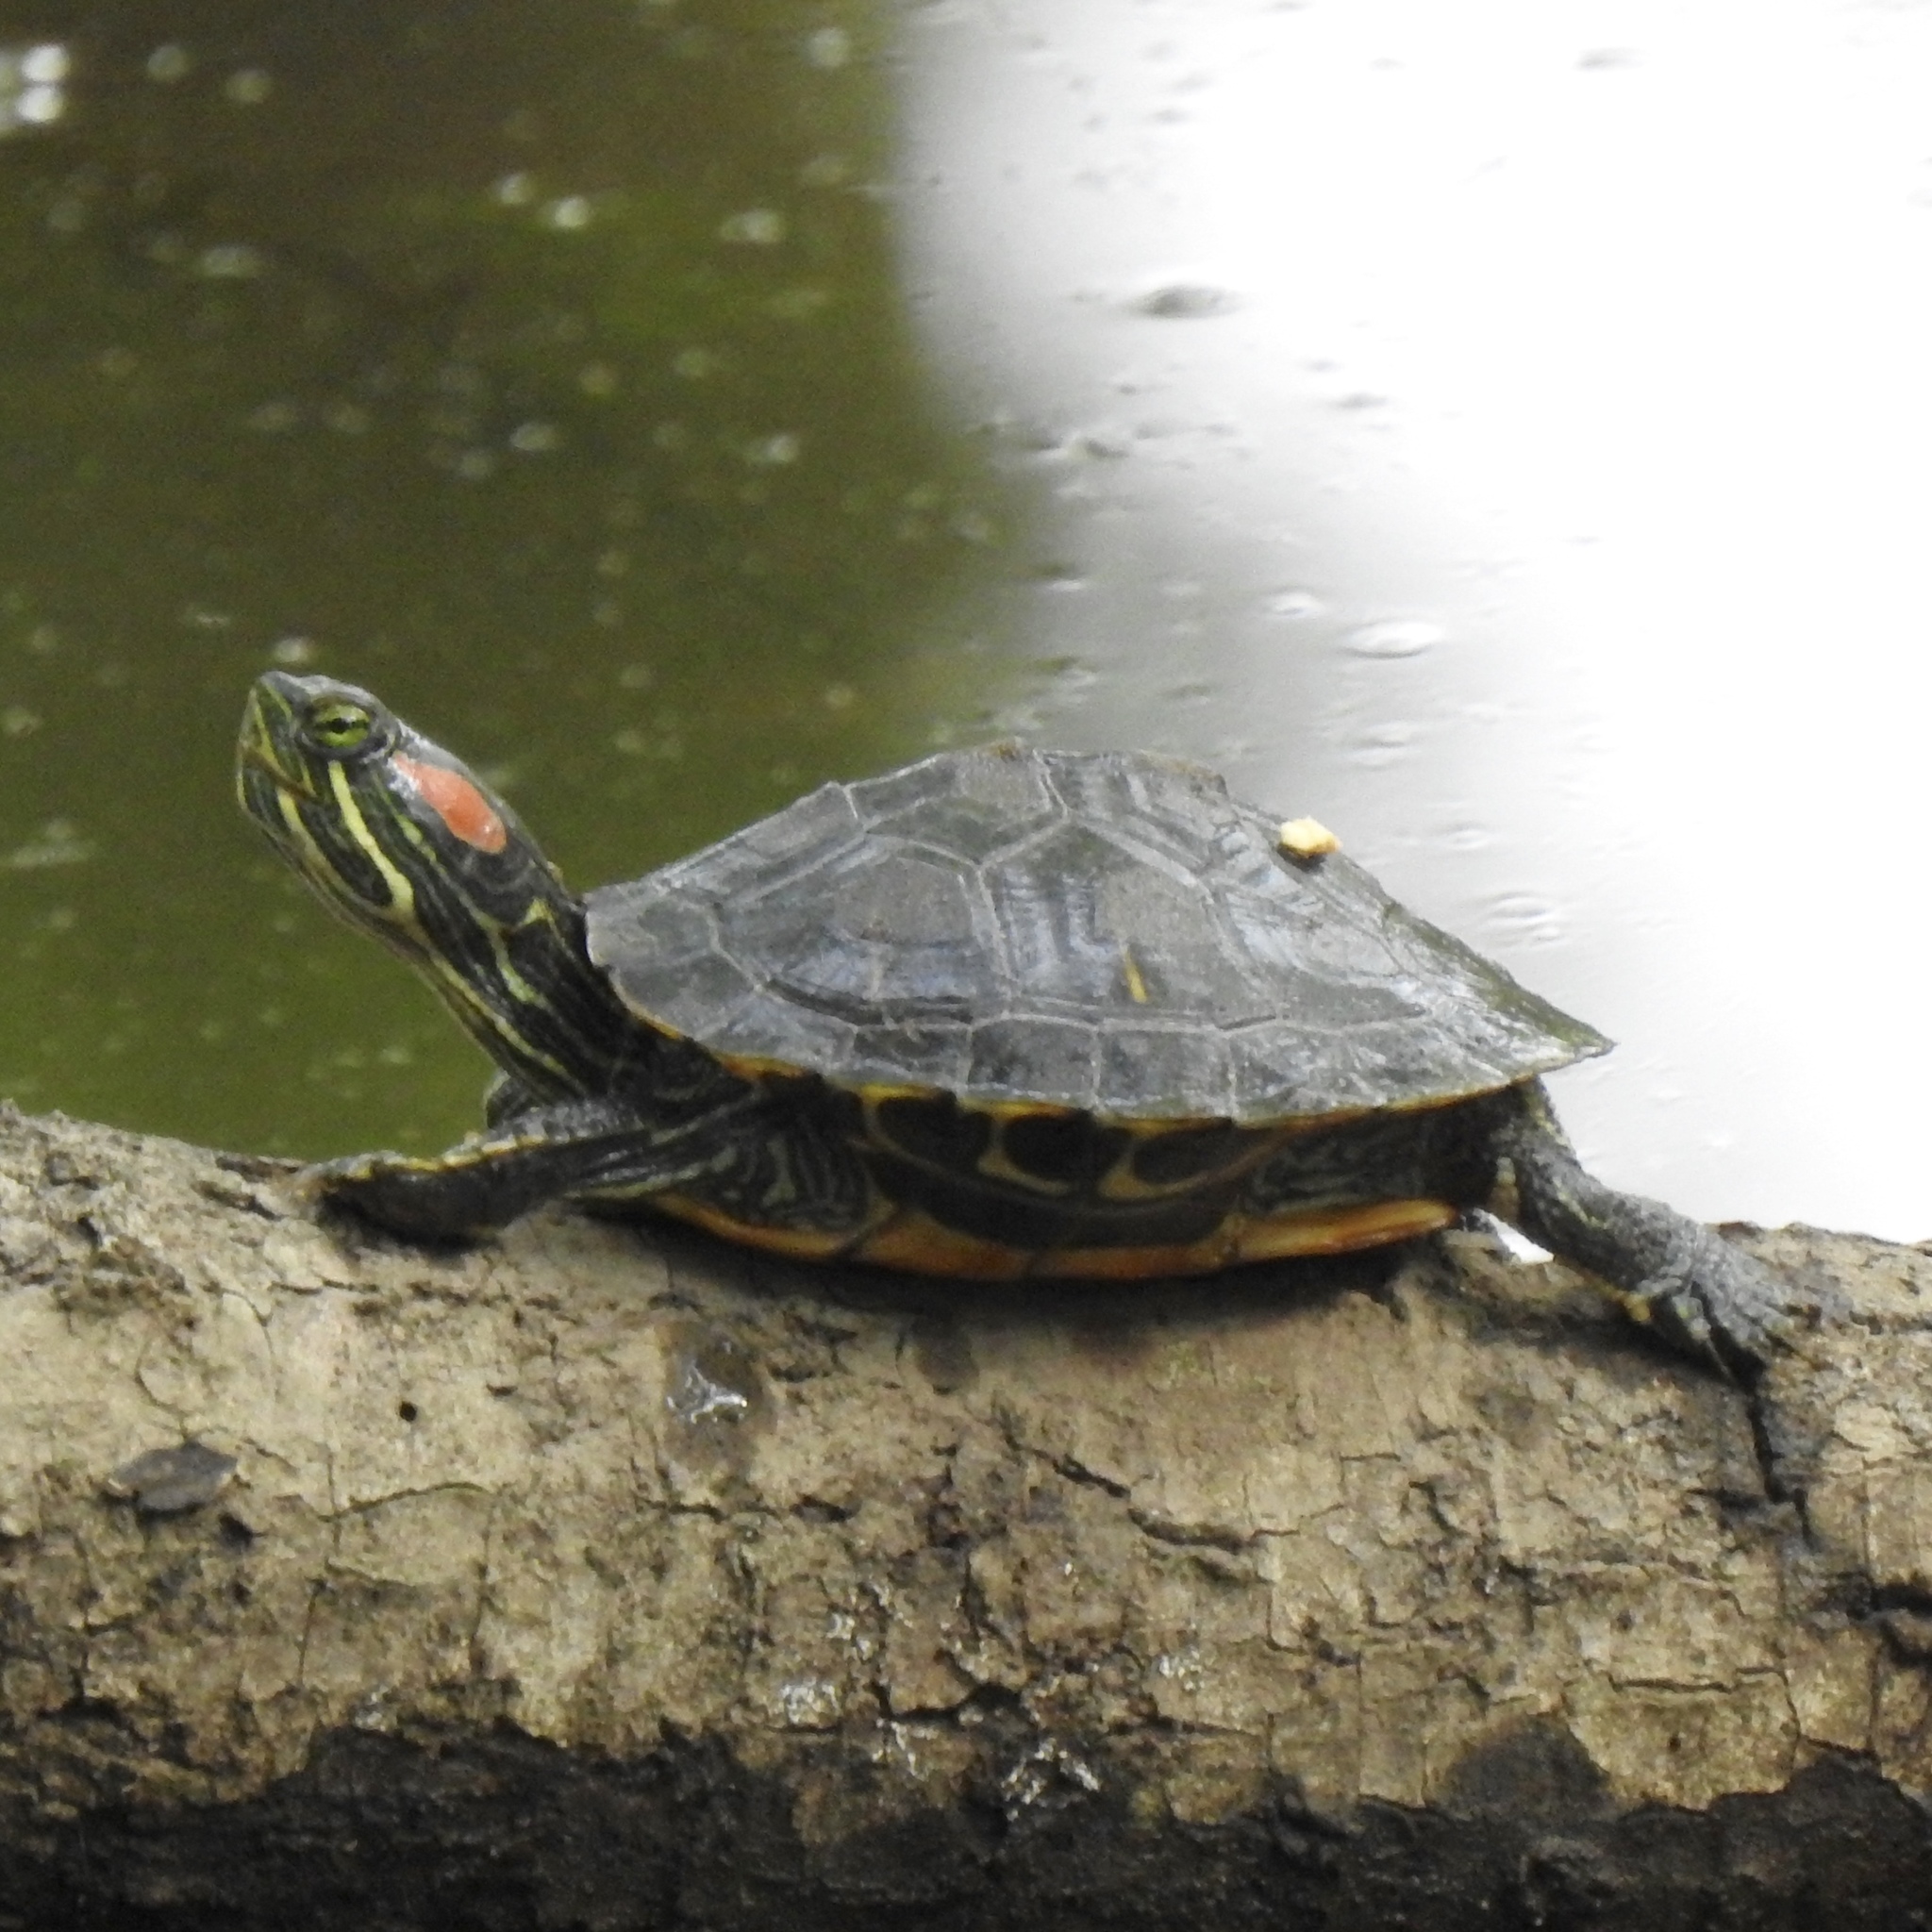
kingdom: Animalia
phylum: Chordata
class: Testudines
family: Emydidae
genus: Trachemys
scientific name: Trachemys scripta
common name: Slider
